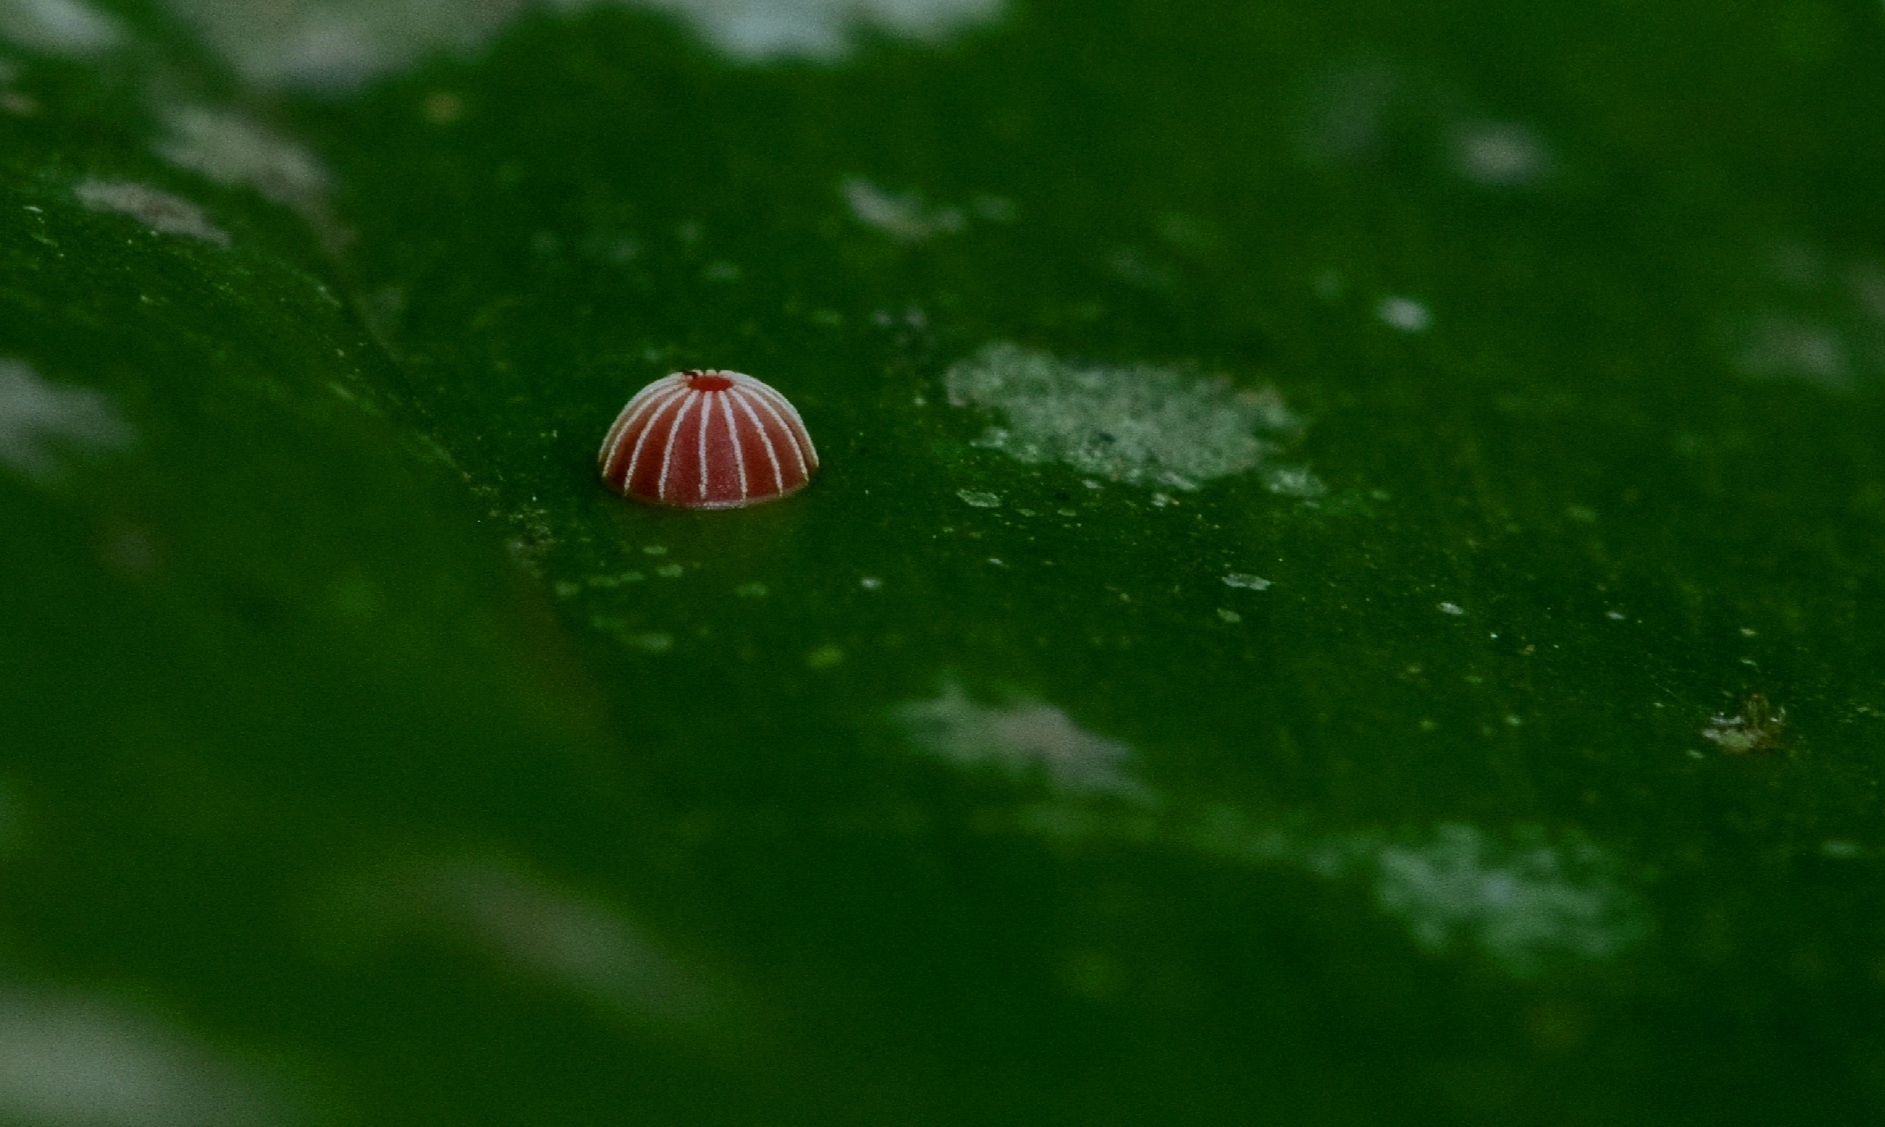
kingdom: Animalia
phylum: Arthropoda
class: Insecta
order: Lepidoptera
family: Hesperiidae
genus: Suastus
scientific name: Suastus gremius
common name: Indian palm bob
